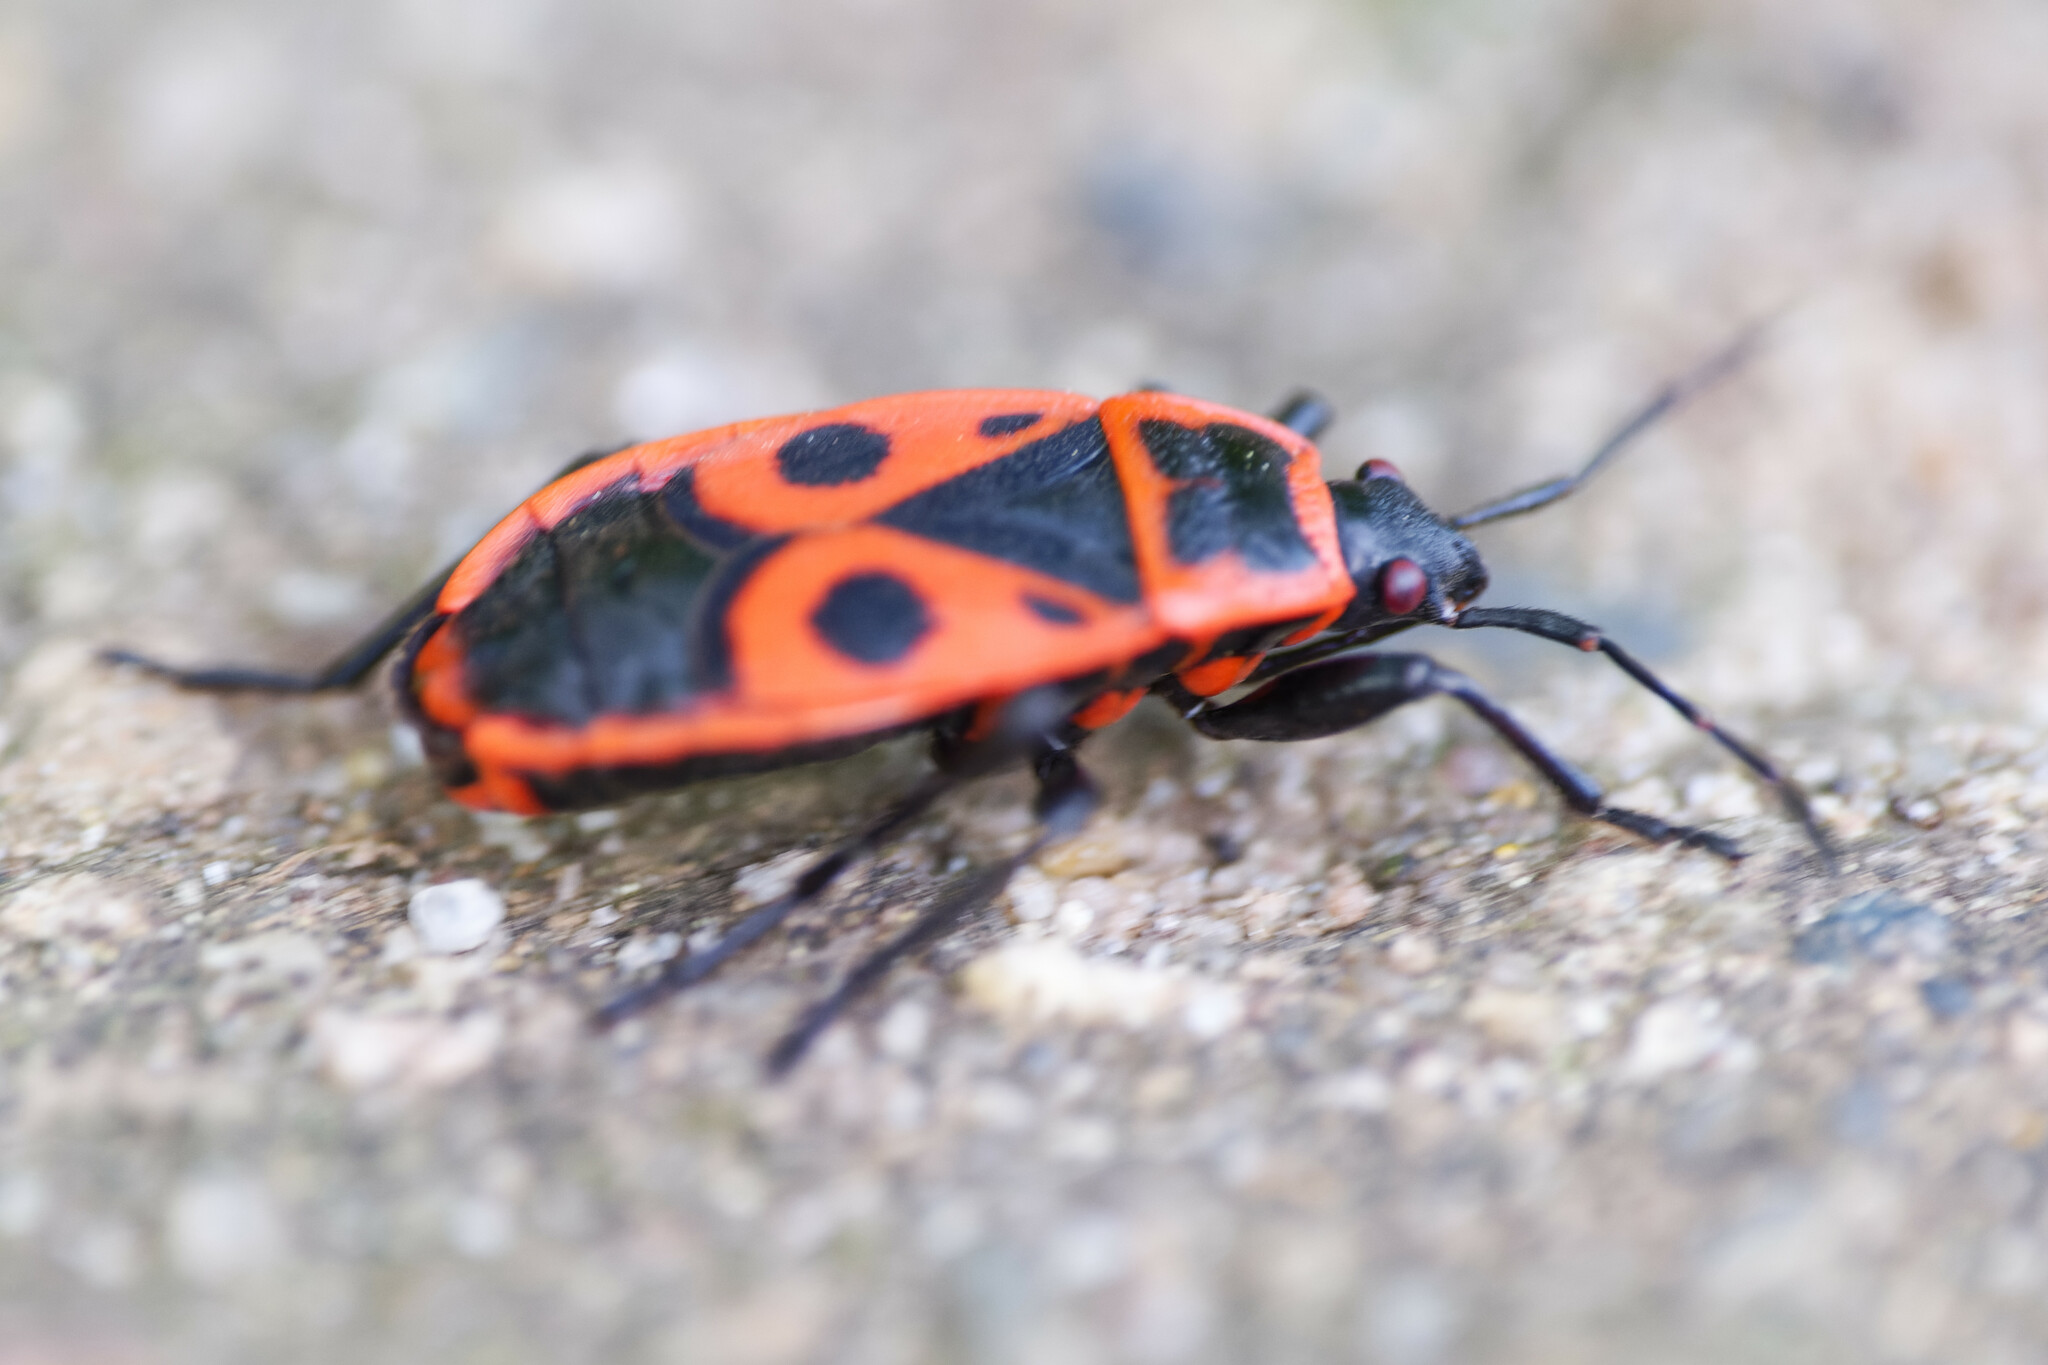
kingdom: Animalia
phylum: Arthropoda
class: Insecta
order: Hemiptera
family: Pyrrhocoridae
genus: Pyrrhocoris
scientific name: Pyrrhocoris apterus
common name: Firebug
